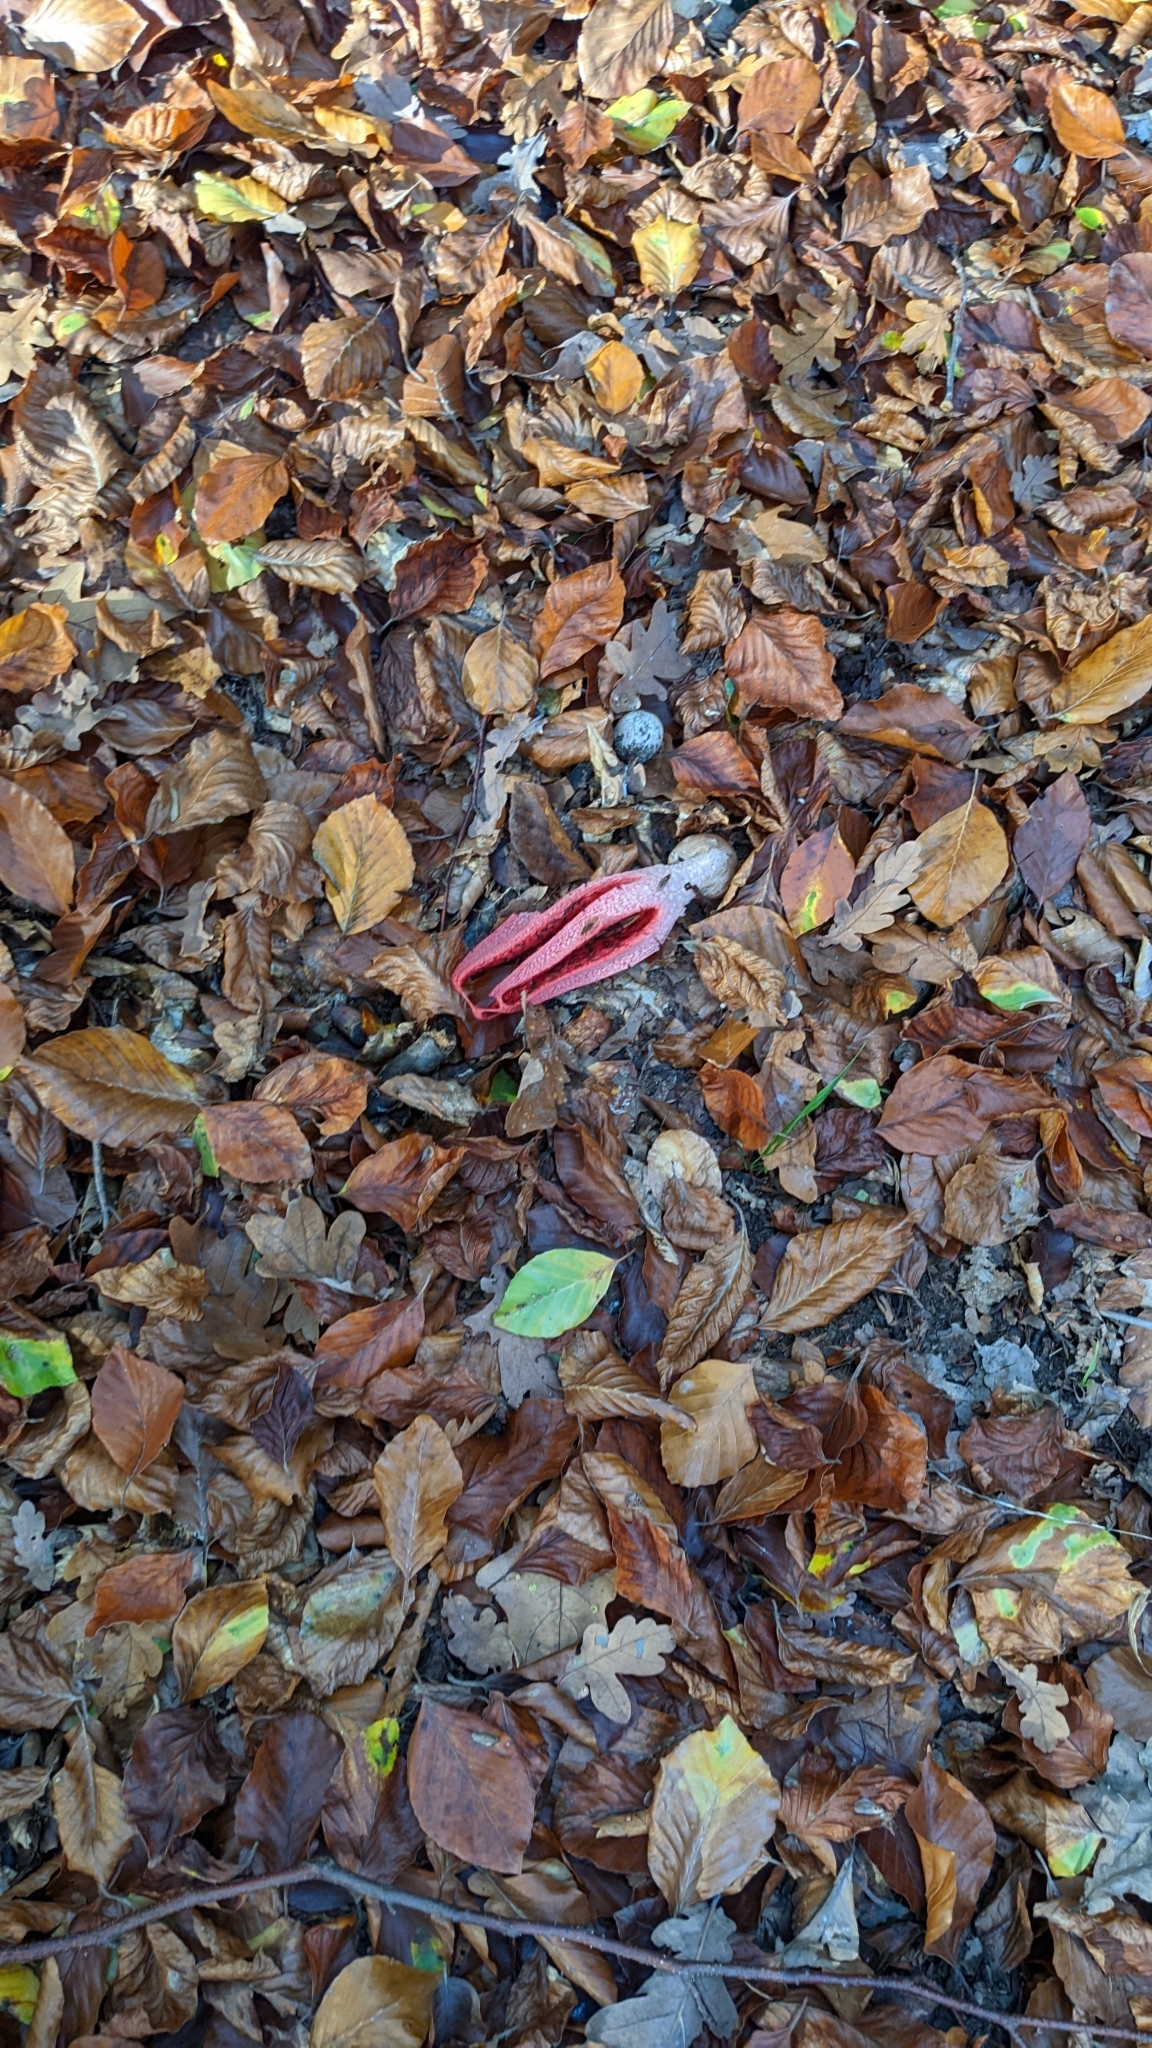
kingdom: Fungi
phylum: Basidiomycota
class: Agaricomycetes
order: Phallales
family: Phallaceae
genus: Clathrus
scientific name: Clathrus archeri
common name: Devil's fingers
